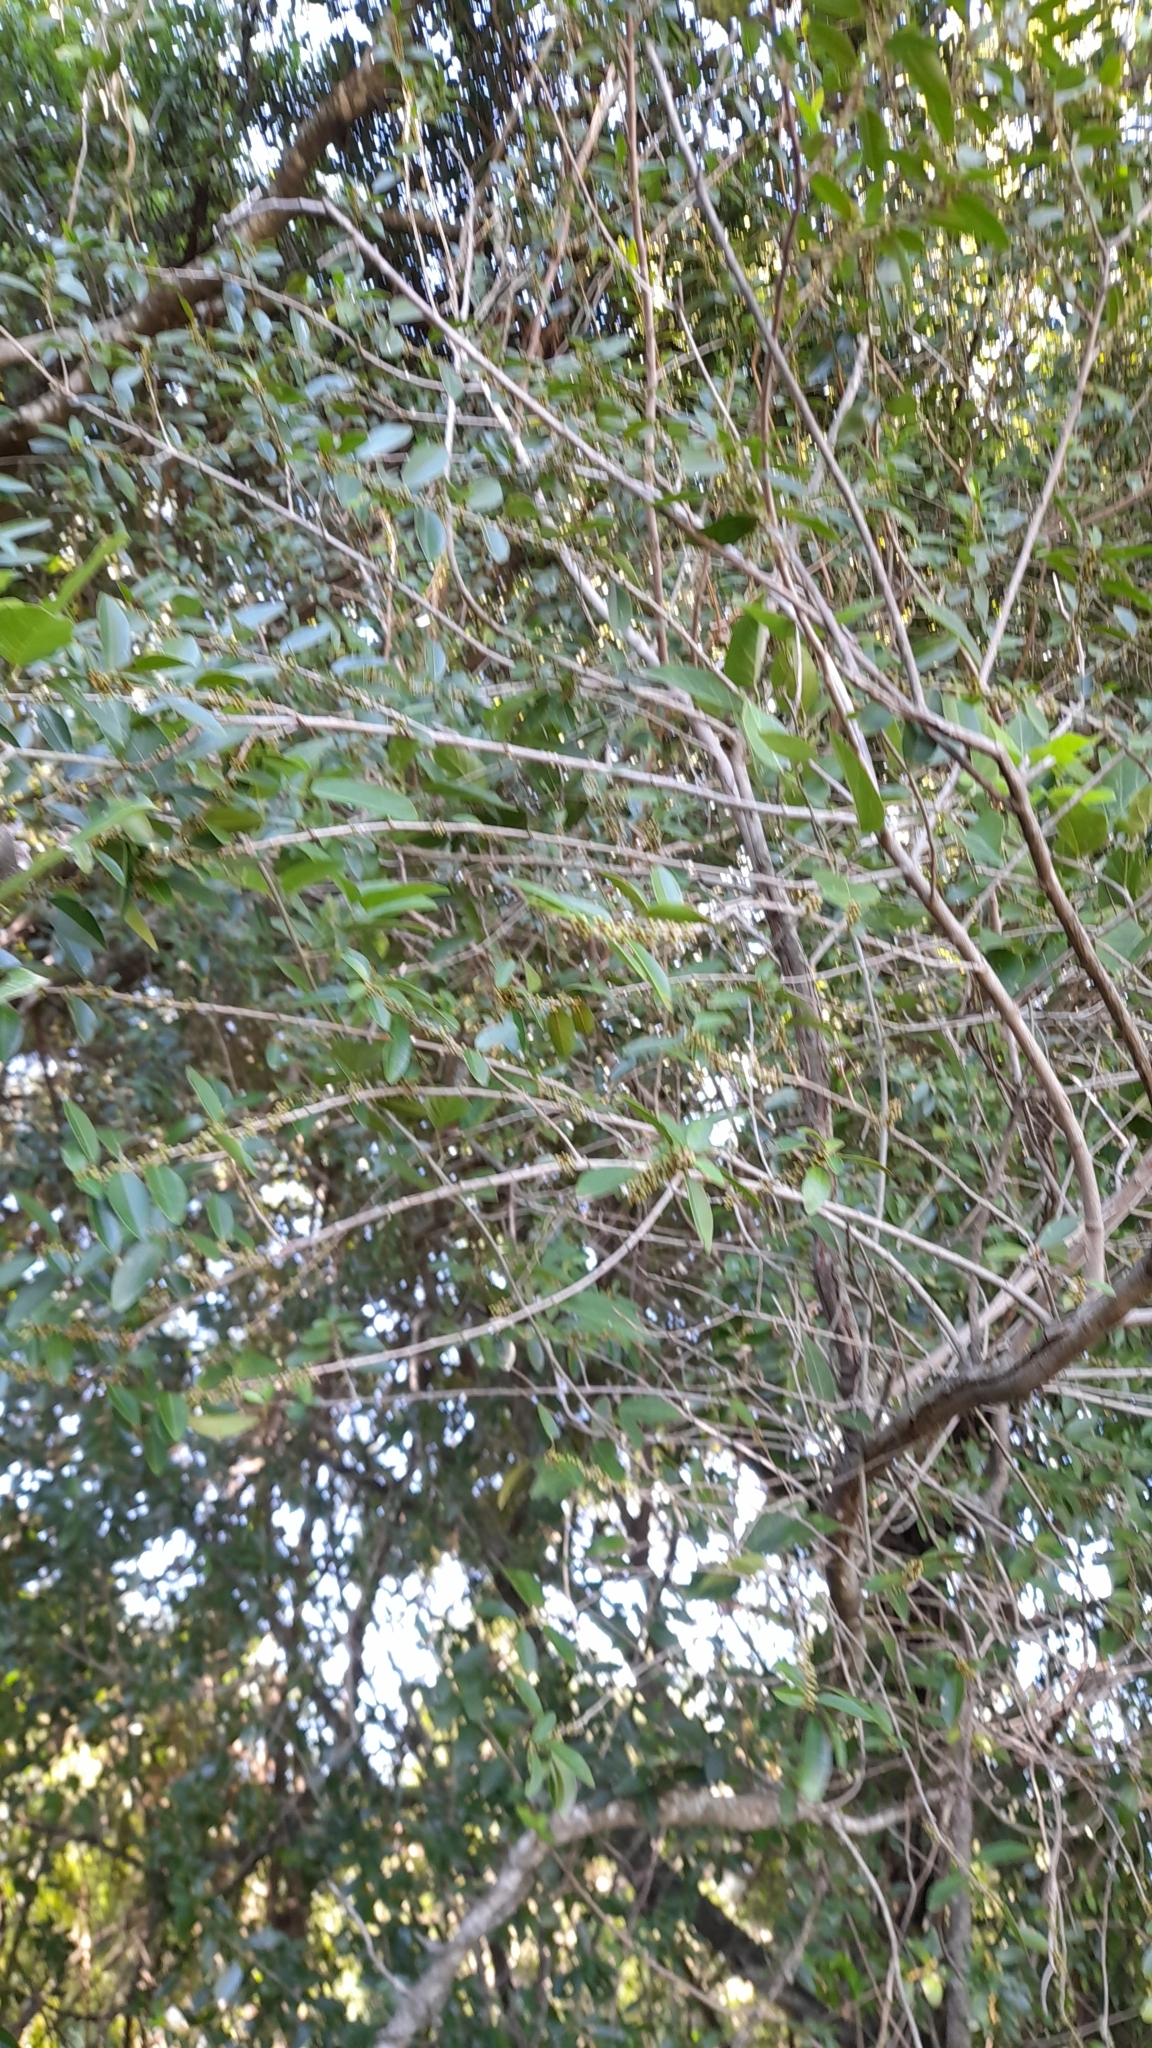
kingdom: Plantae
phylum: Tracheophyta
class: Magnoliopsida
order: Ericales
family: Sapotaceae
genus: Chrysophyllum
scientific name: Chrysophyllum marginatum
